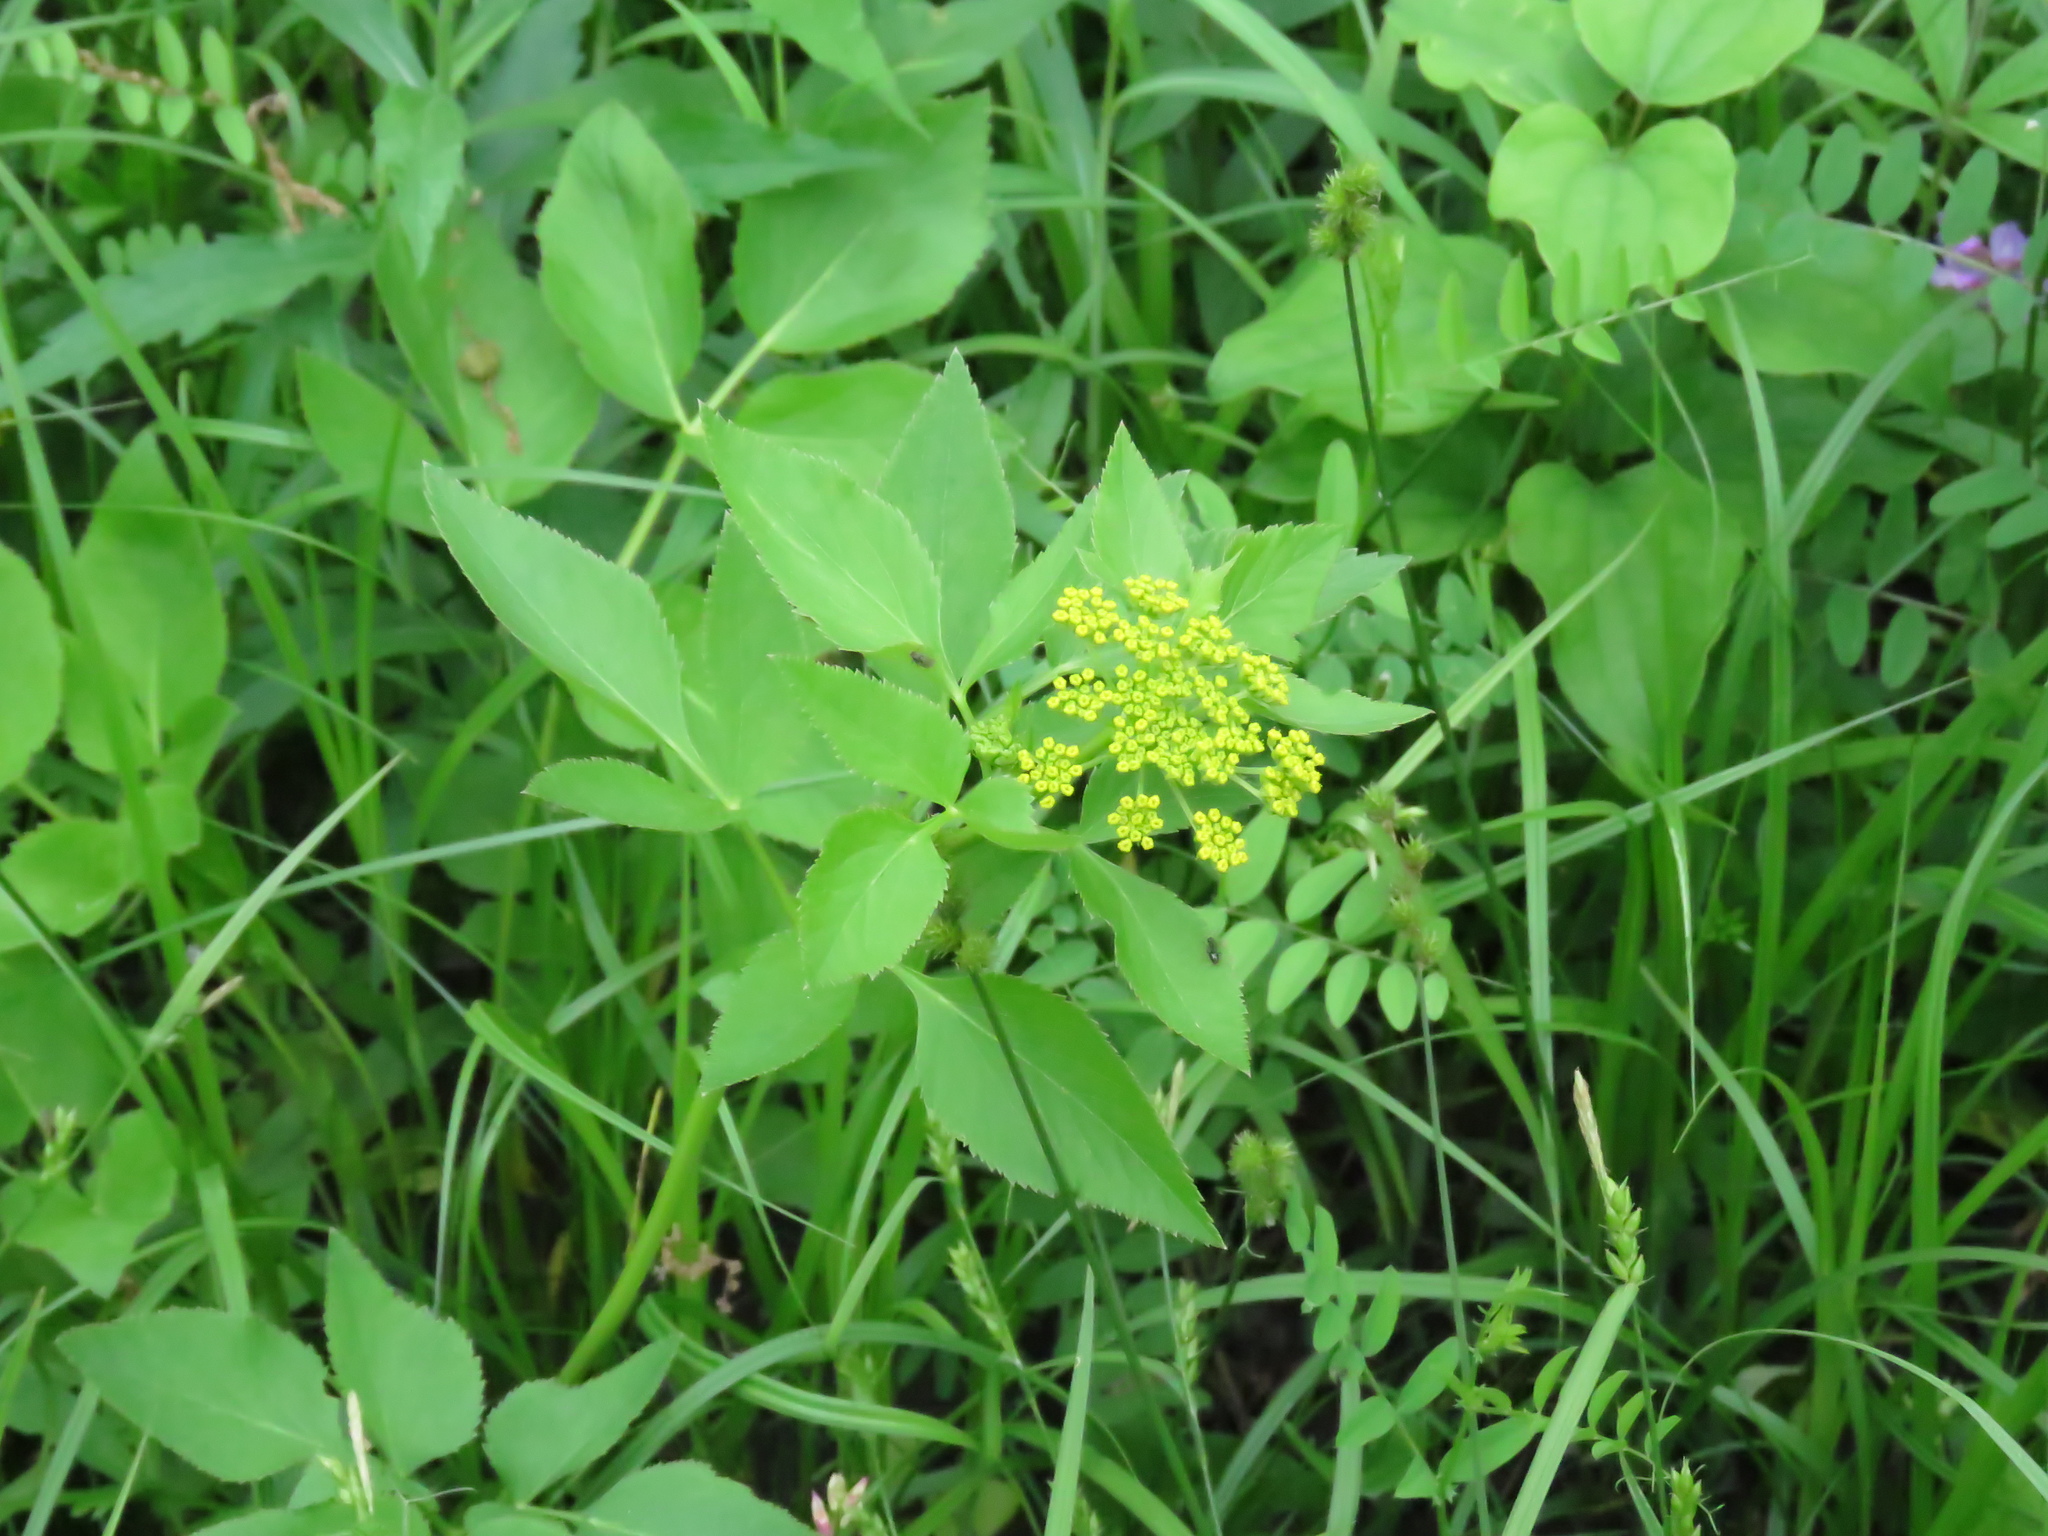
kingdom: Plantae
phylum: Tracheophyta
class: Magnoliopsida
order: Apiales
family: Apiaceae
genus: Zizia
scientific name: Zizia aurea
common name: Golden alexanders
